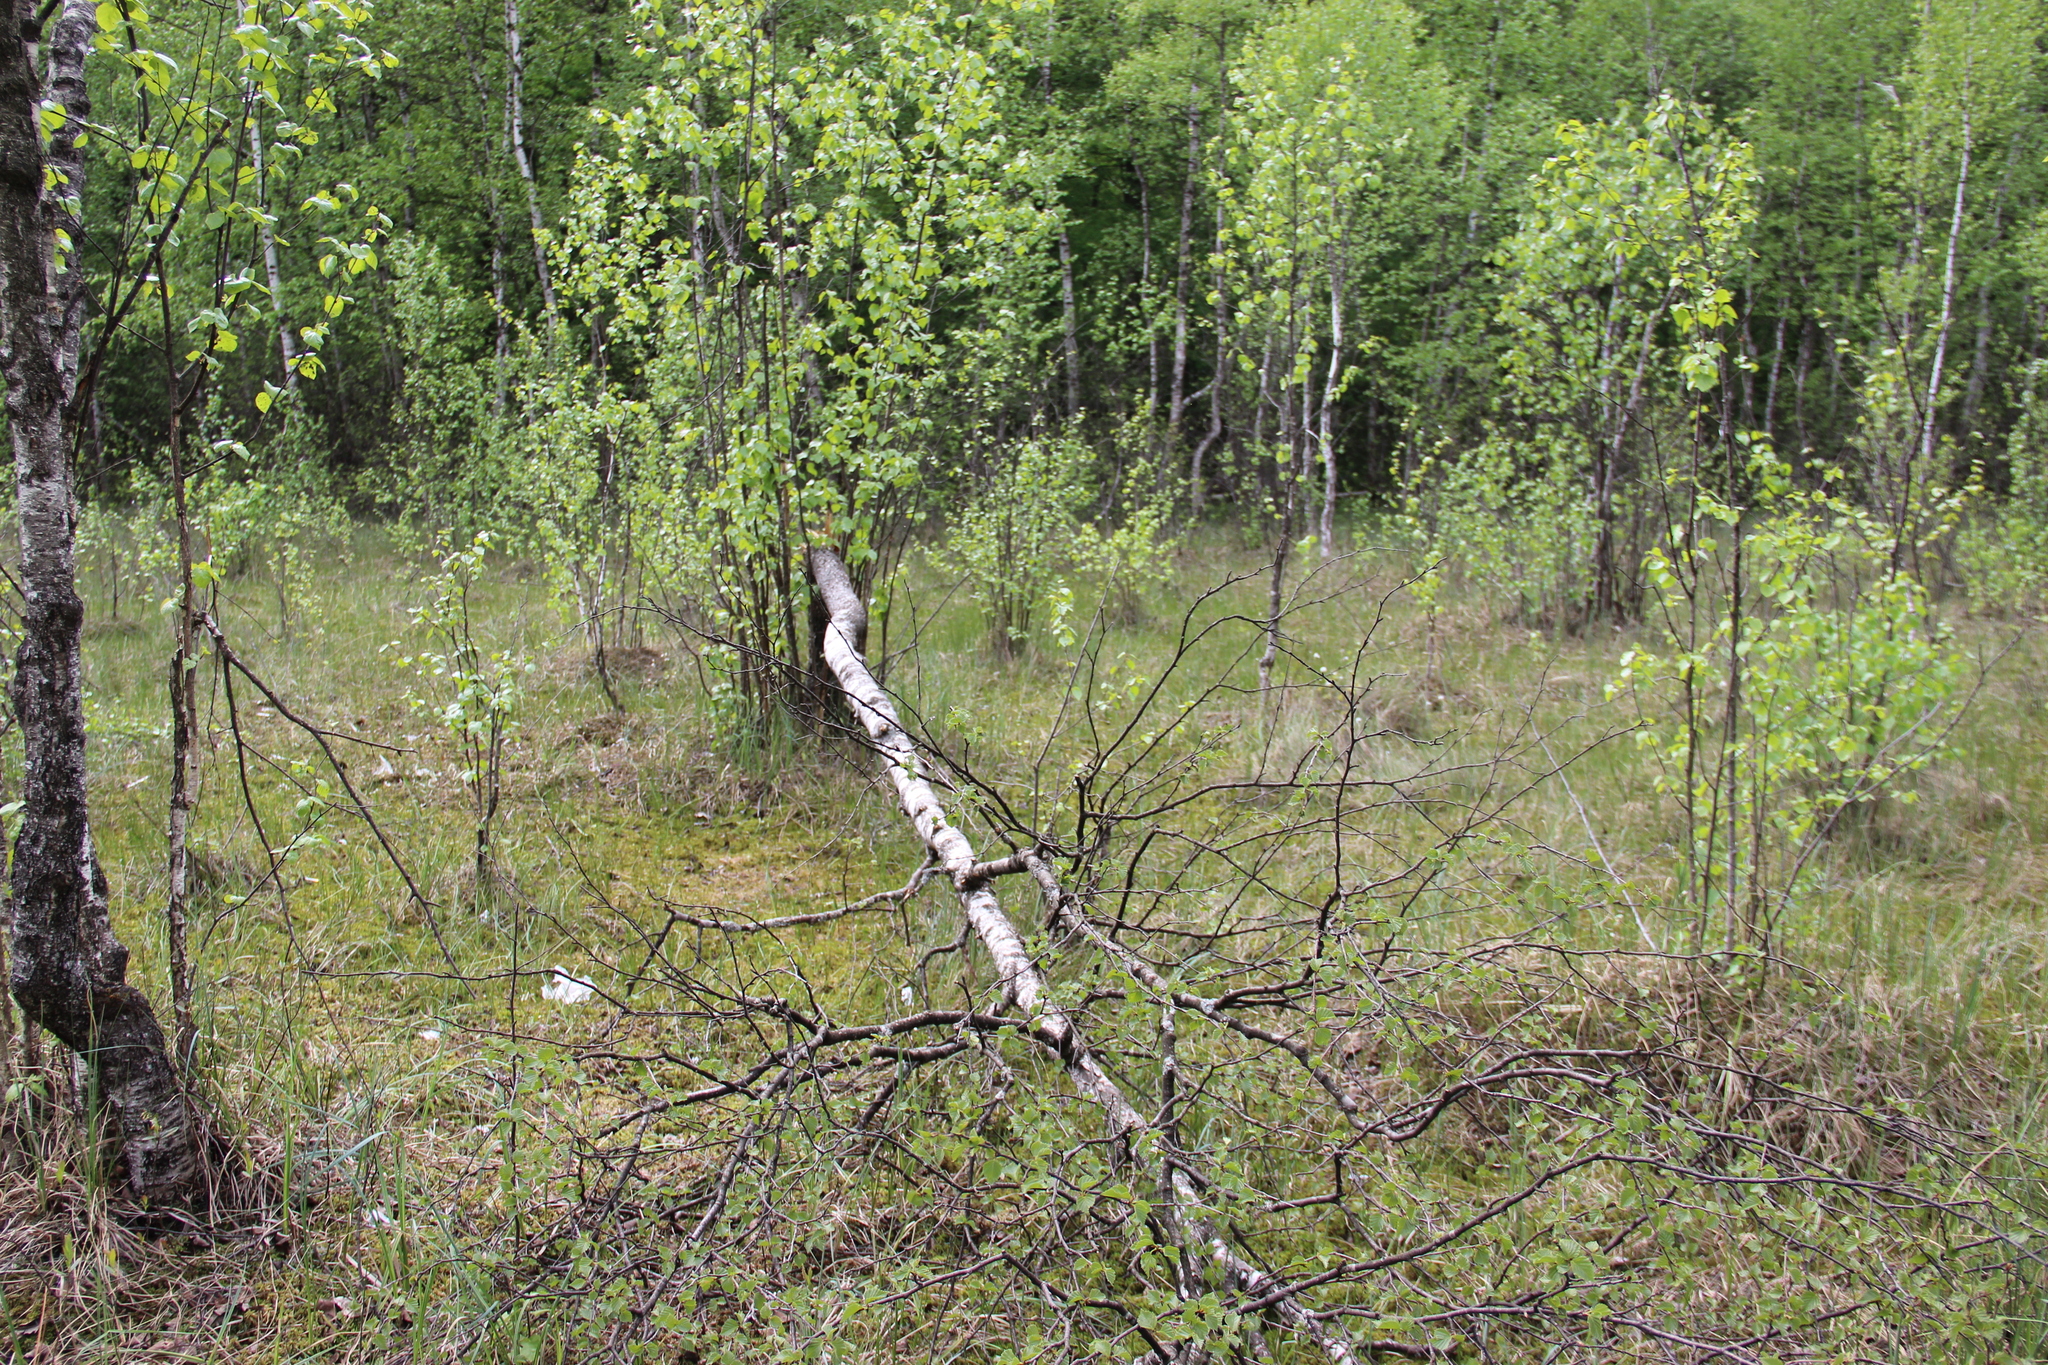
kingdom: Plantae
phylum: Tracheophyta
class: Magnoliopsida
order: Fagales
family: Betulaceae
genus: Betula
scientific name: Betula pubescens
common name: Downy birch
